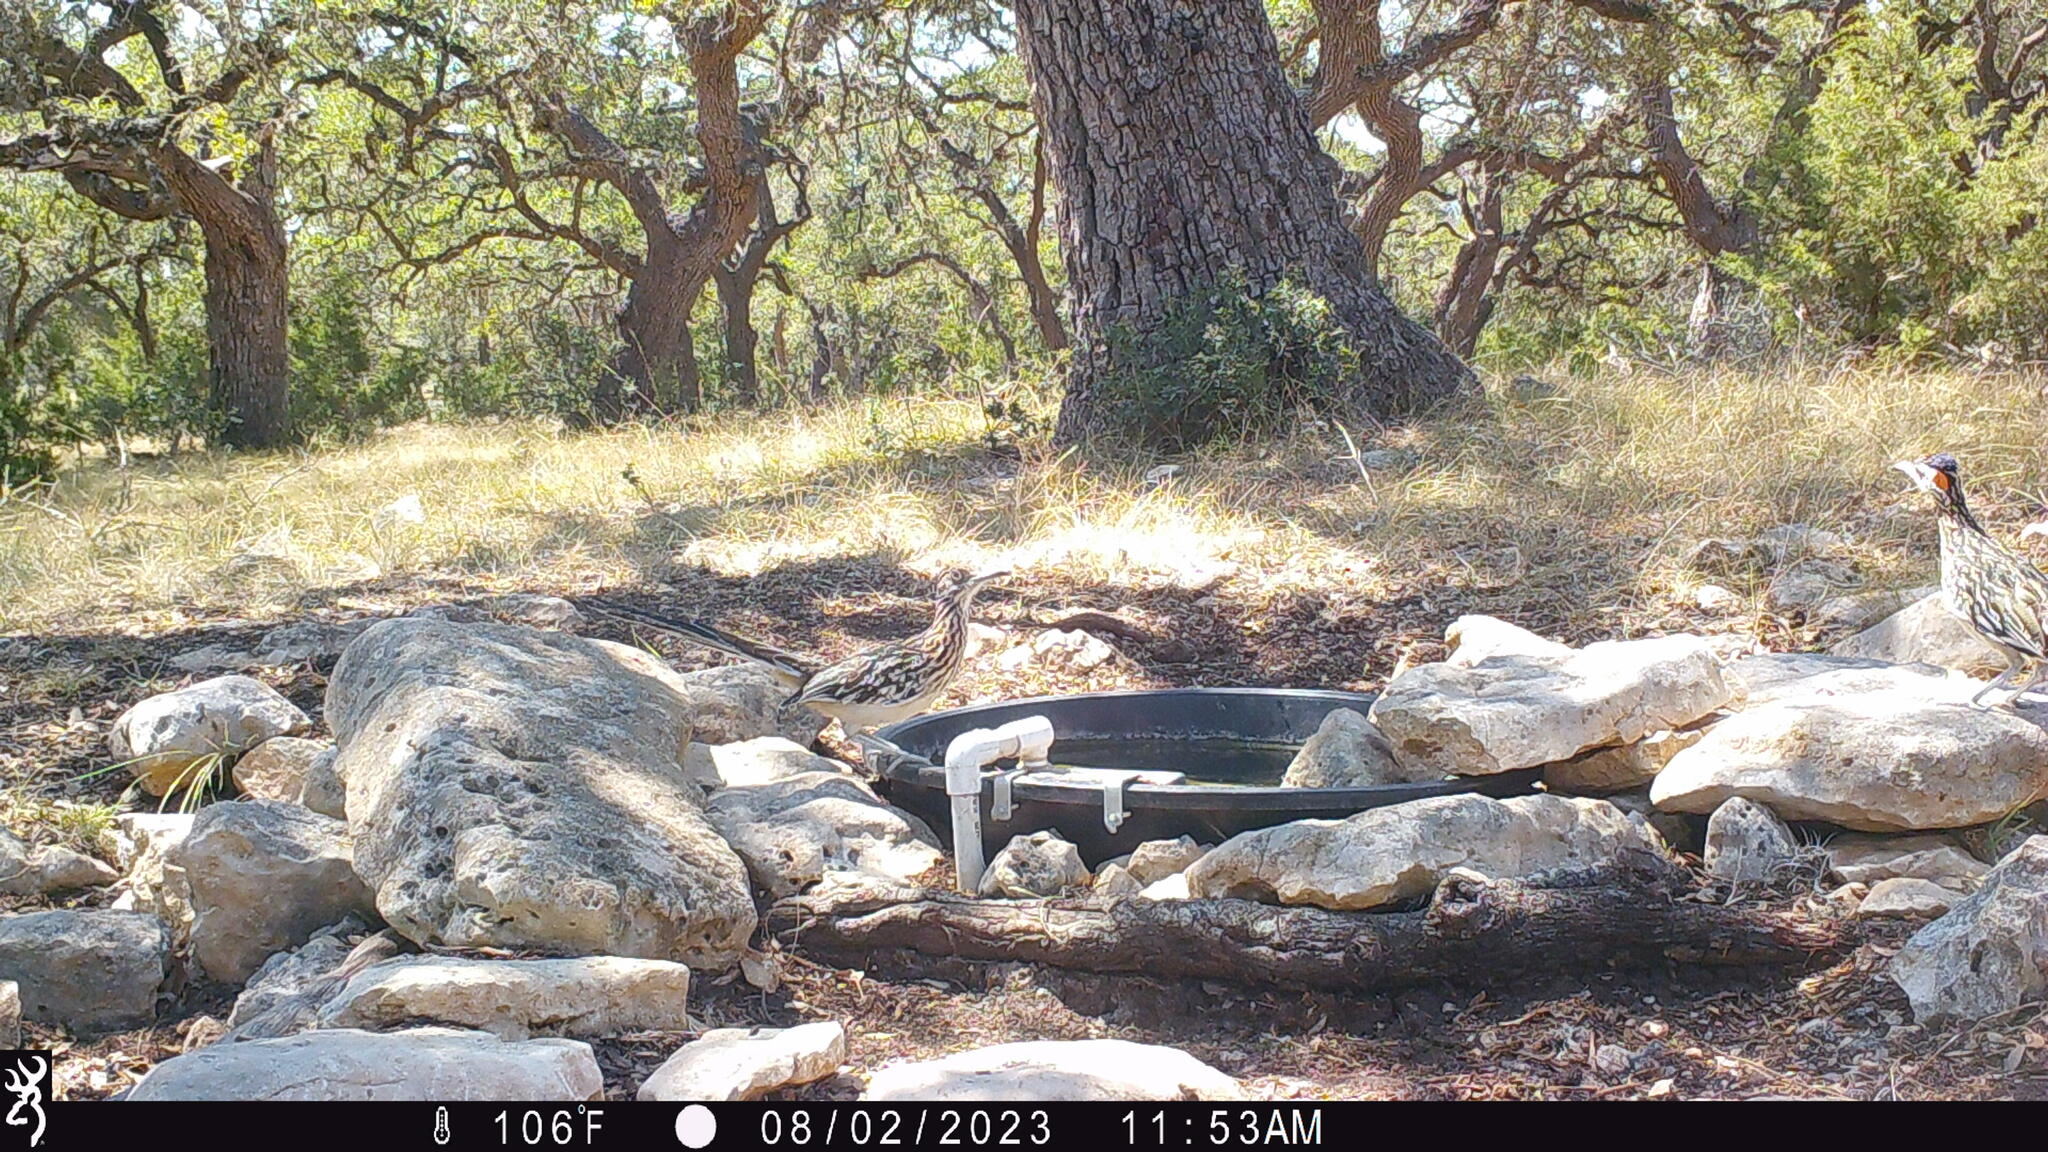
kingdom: Animalia
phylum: Chordata
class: Aves
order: Cuculiformes
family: Cuculidae
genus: Geococcyx
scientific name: Geococcyx californianus
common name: Greater roadrunner
